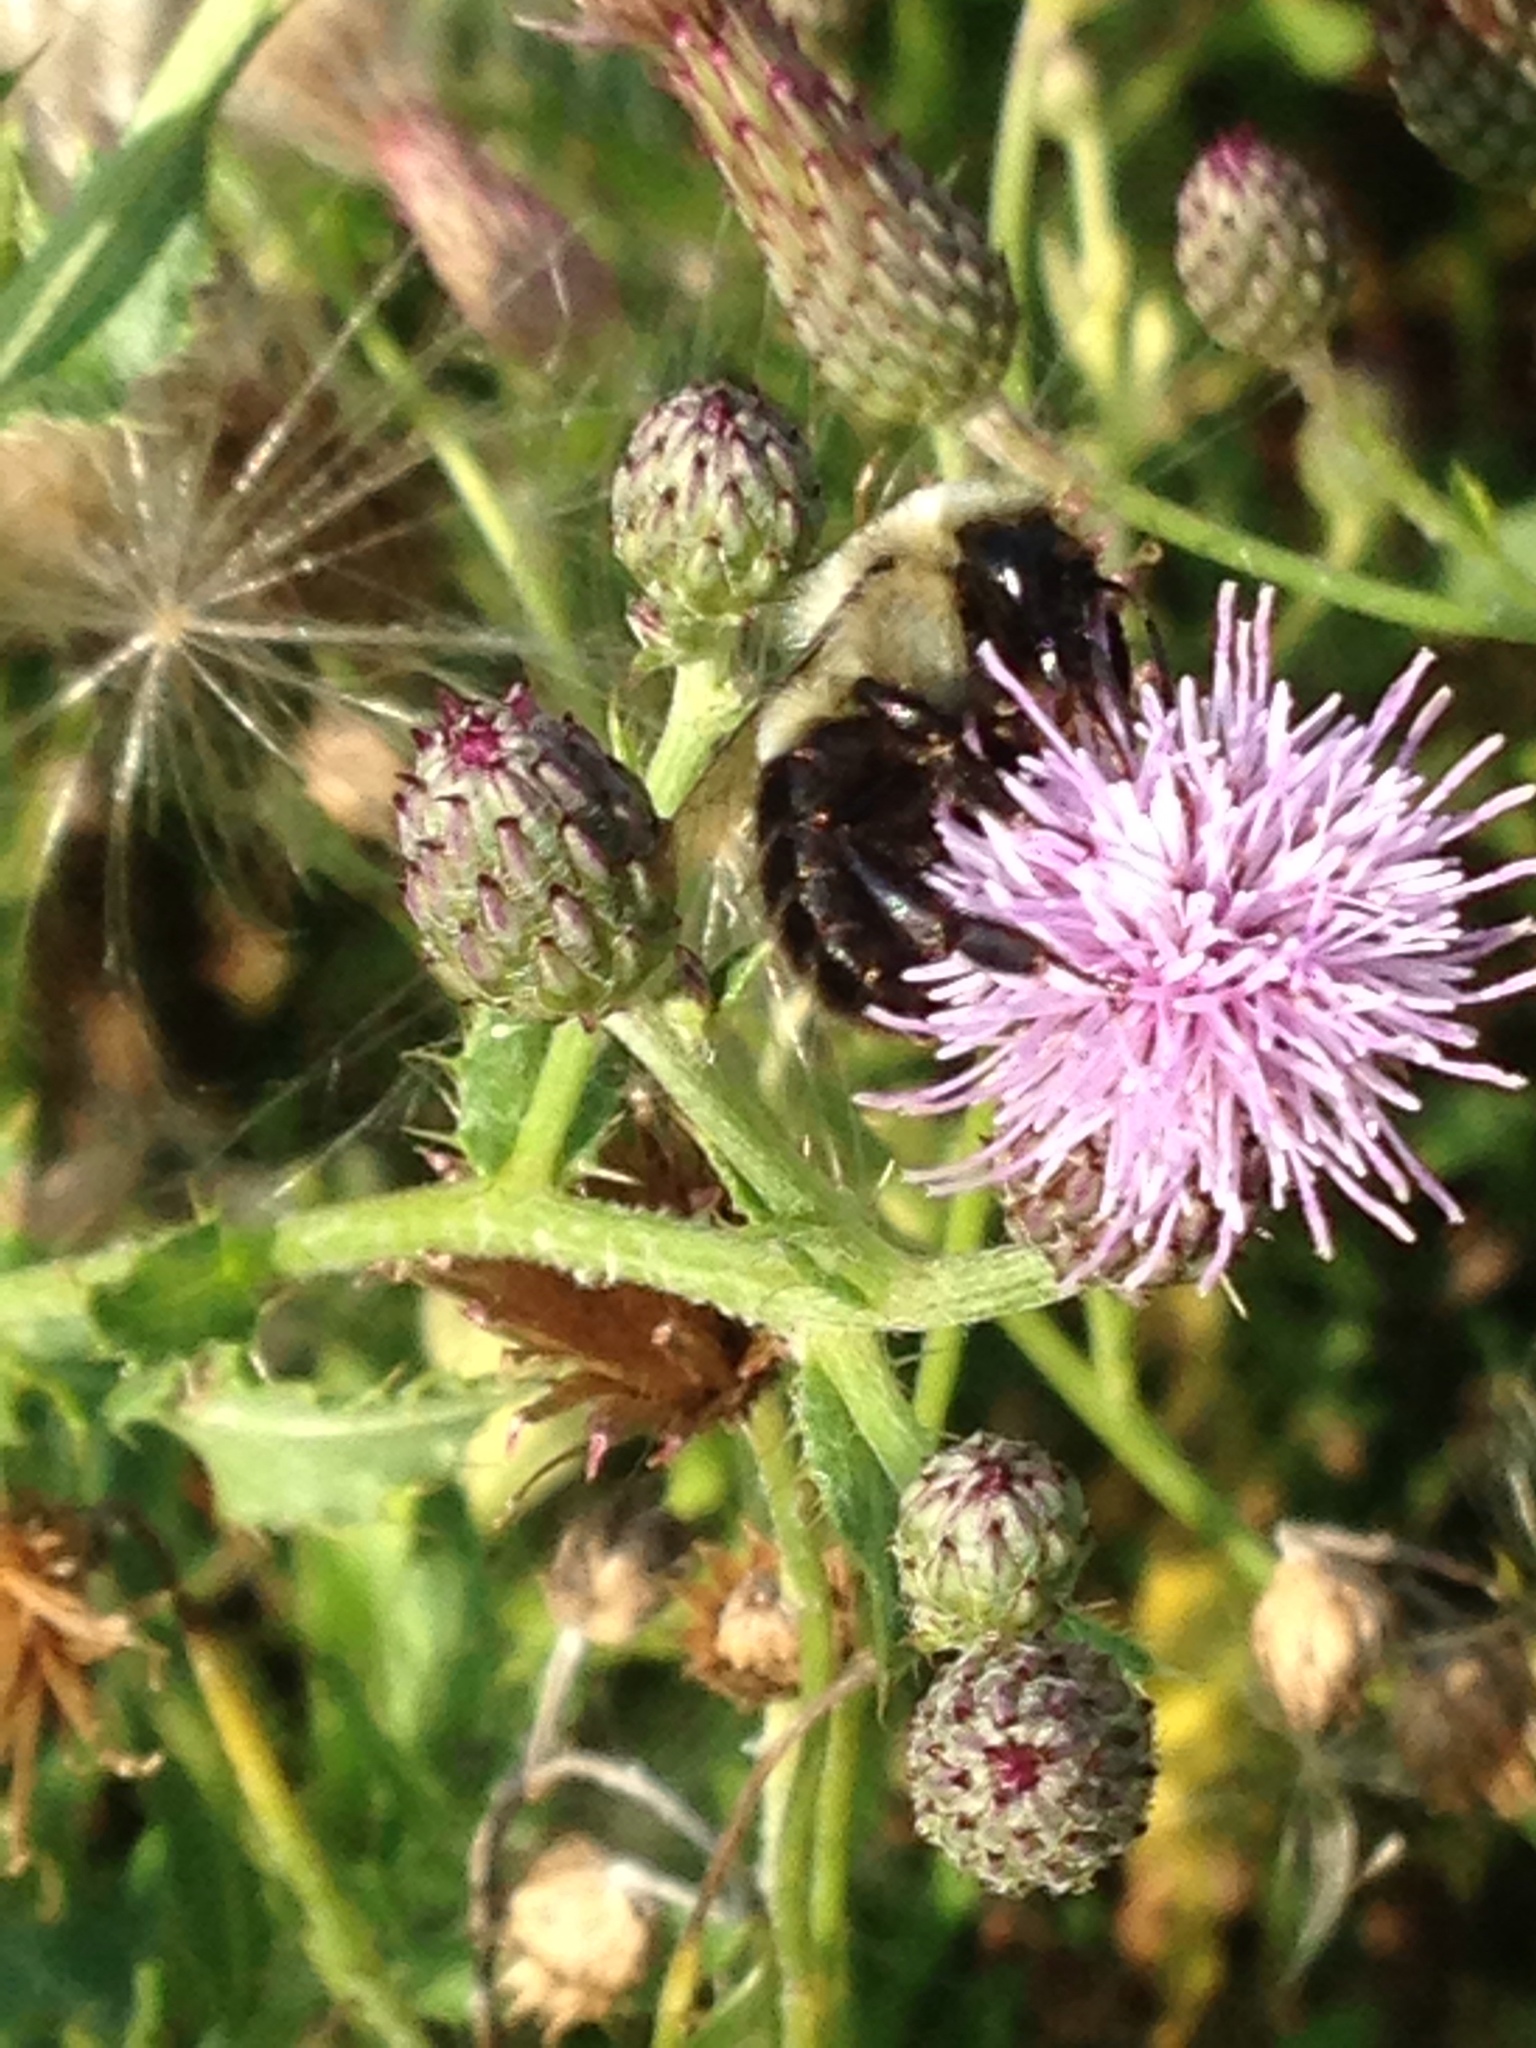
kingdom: Animalia
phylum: Arthropoda
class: Insecta
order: Hymenoptera
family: Apidae
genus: Bombus
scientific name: Bombus impatiens
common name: Common eastern bumble bee
